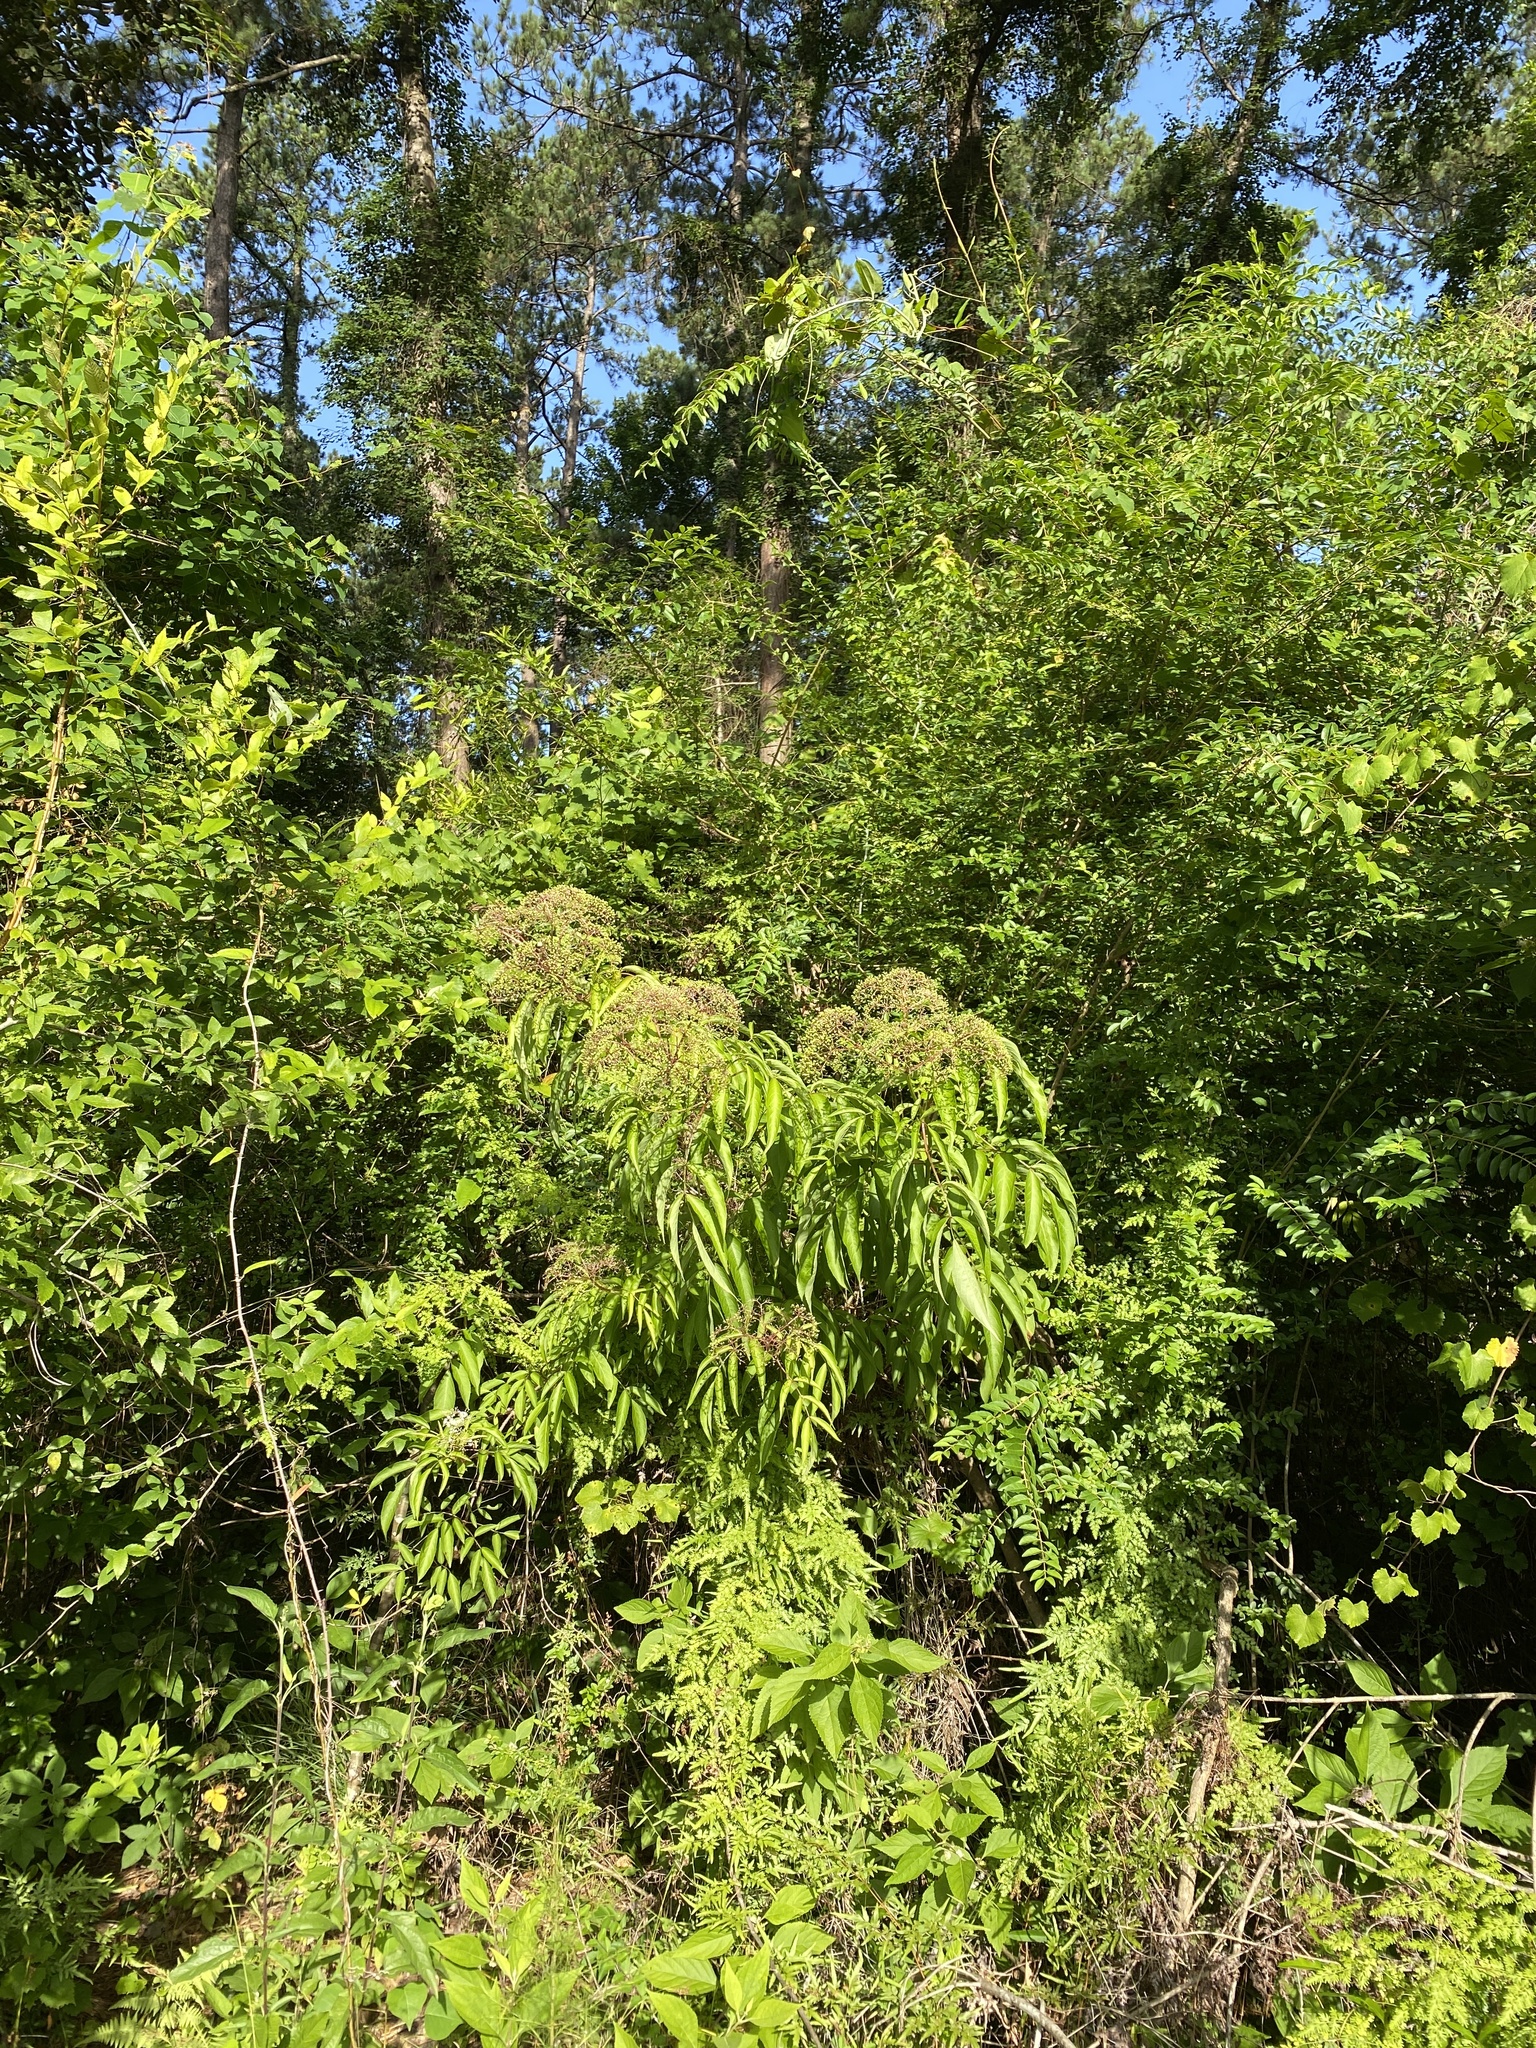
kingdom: Plantae
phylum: Tracheophyta
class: Magnoliopsida
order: Dipsacales
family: Viburnaceae
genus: Sambucus
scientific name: Sambucus canadensis
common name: American elder
